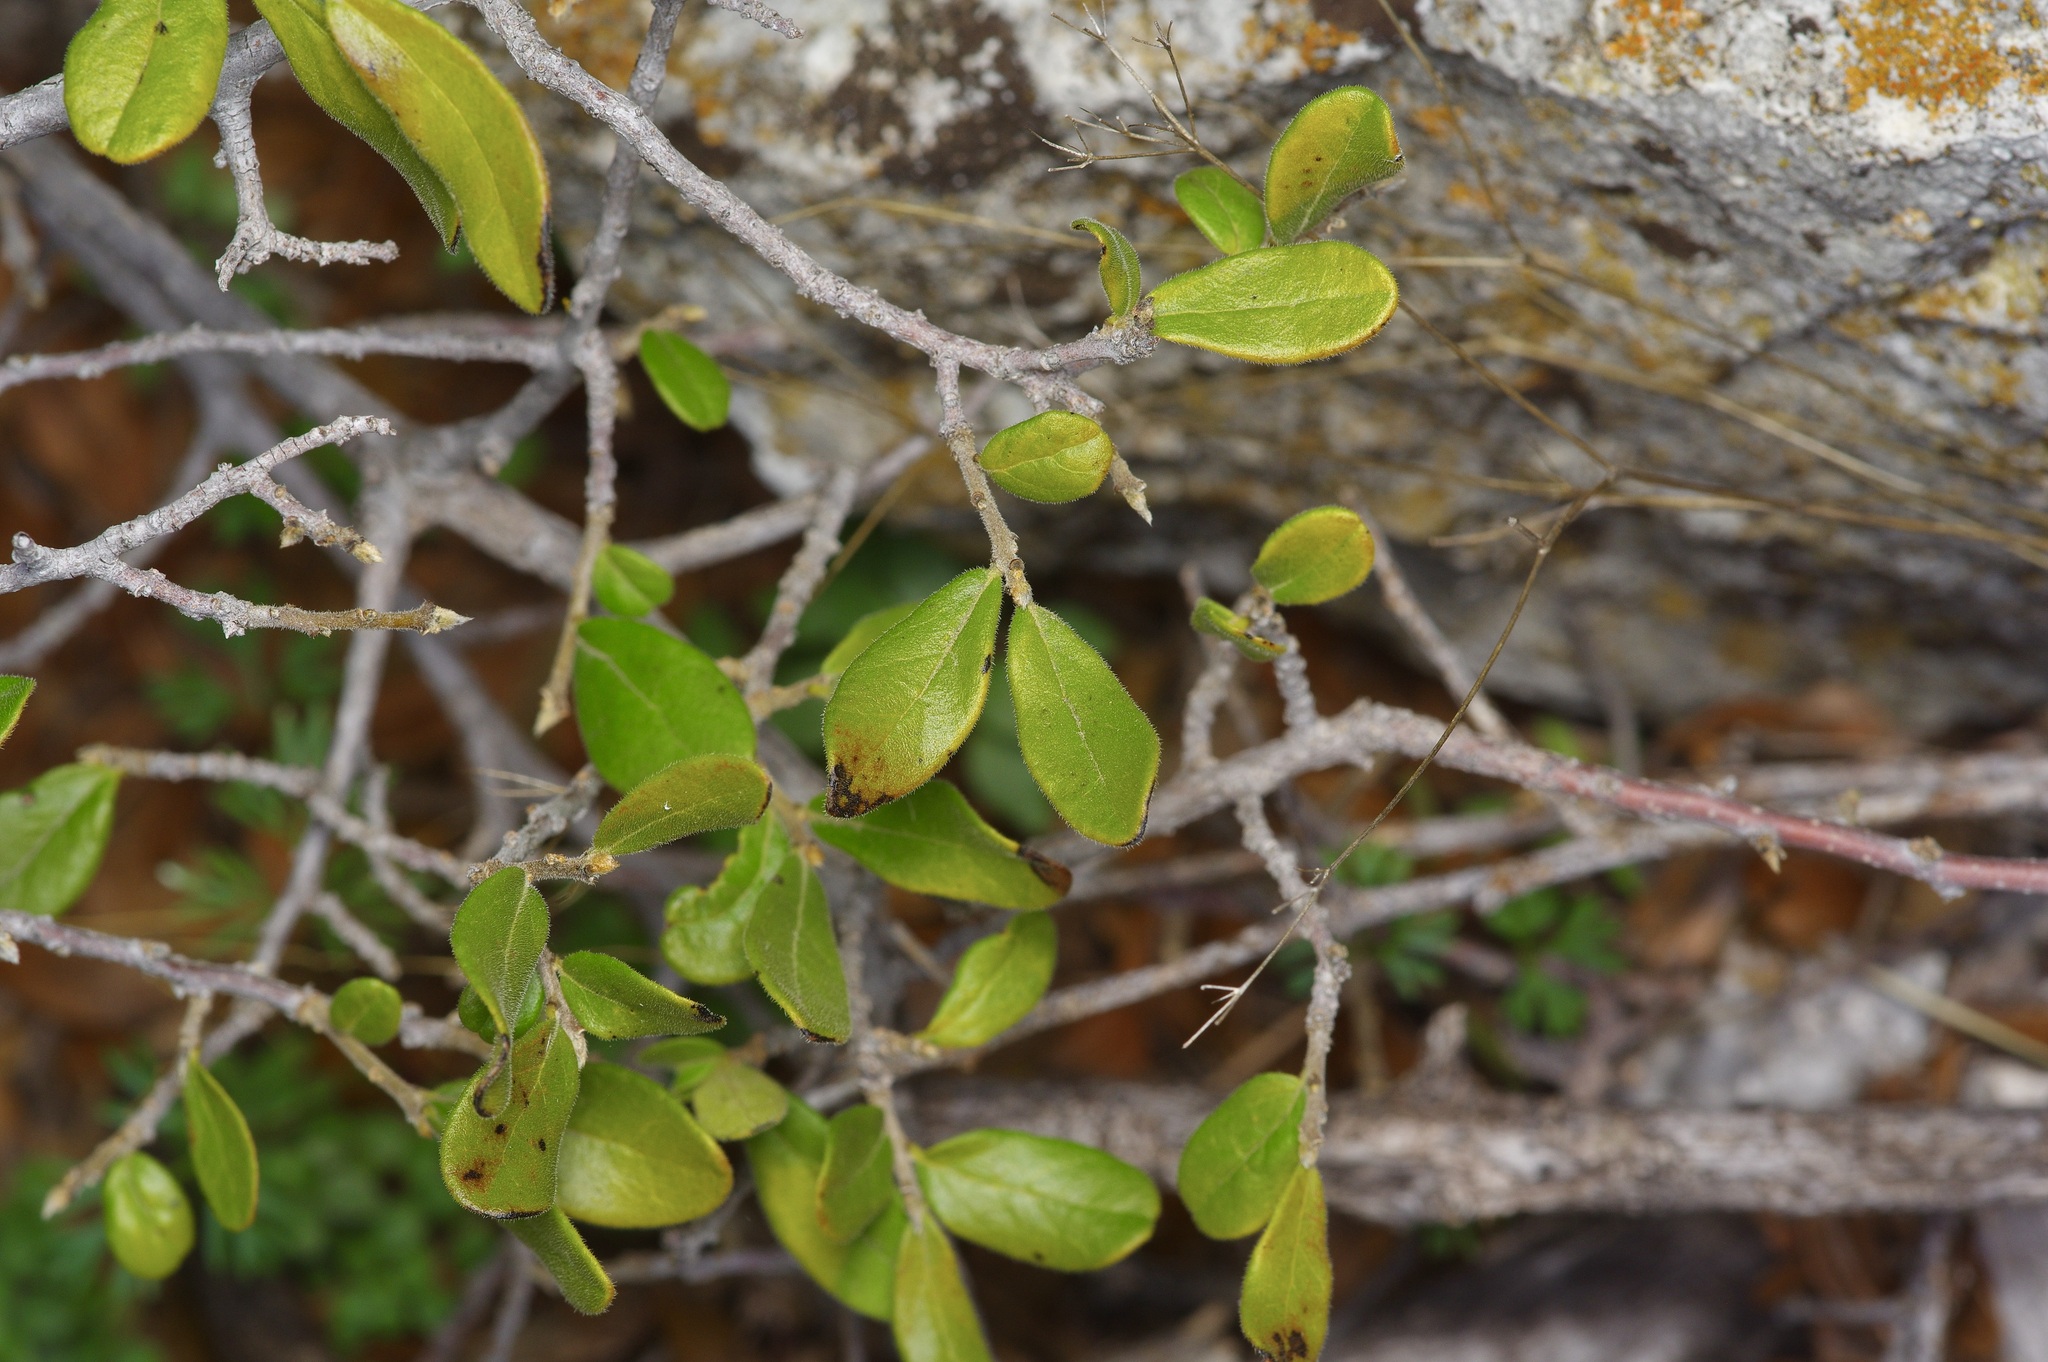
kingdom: Plantae
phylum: Tracheophyta
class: Magnoliopsida
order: Ericales
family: Ebenaceae
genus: Diospyros
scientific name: Diospyros texana
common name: Texas persimmon
